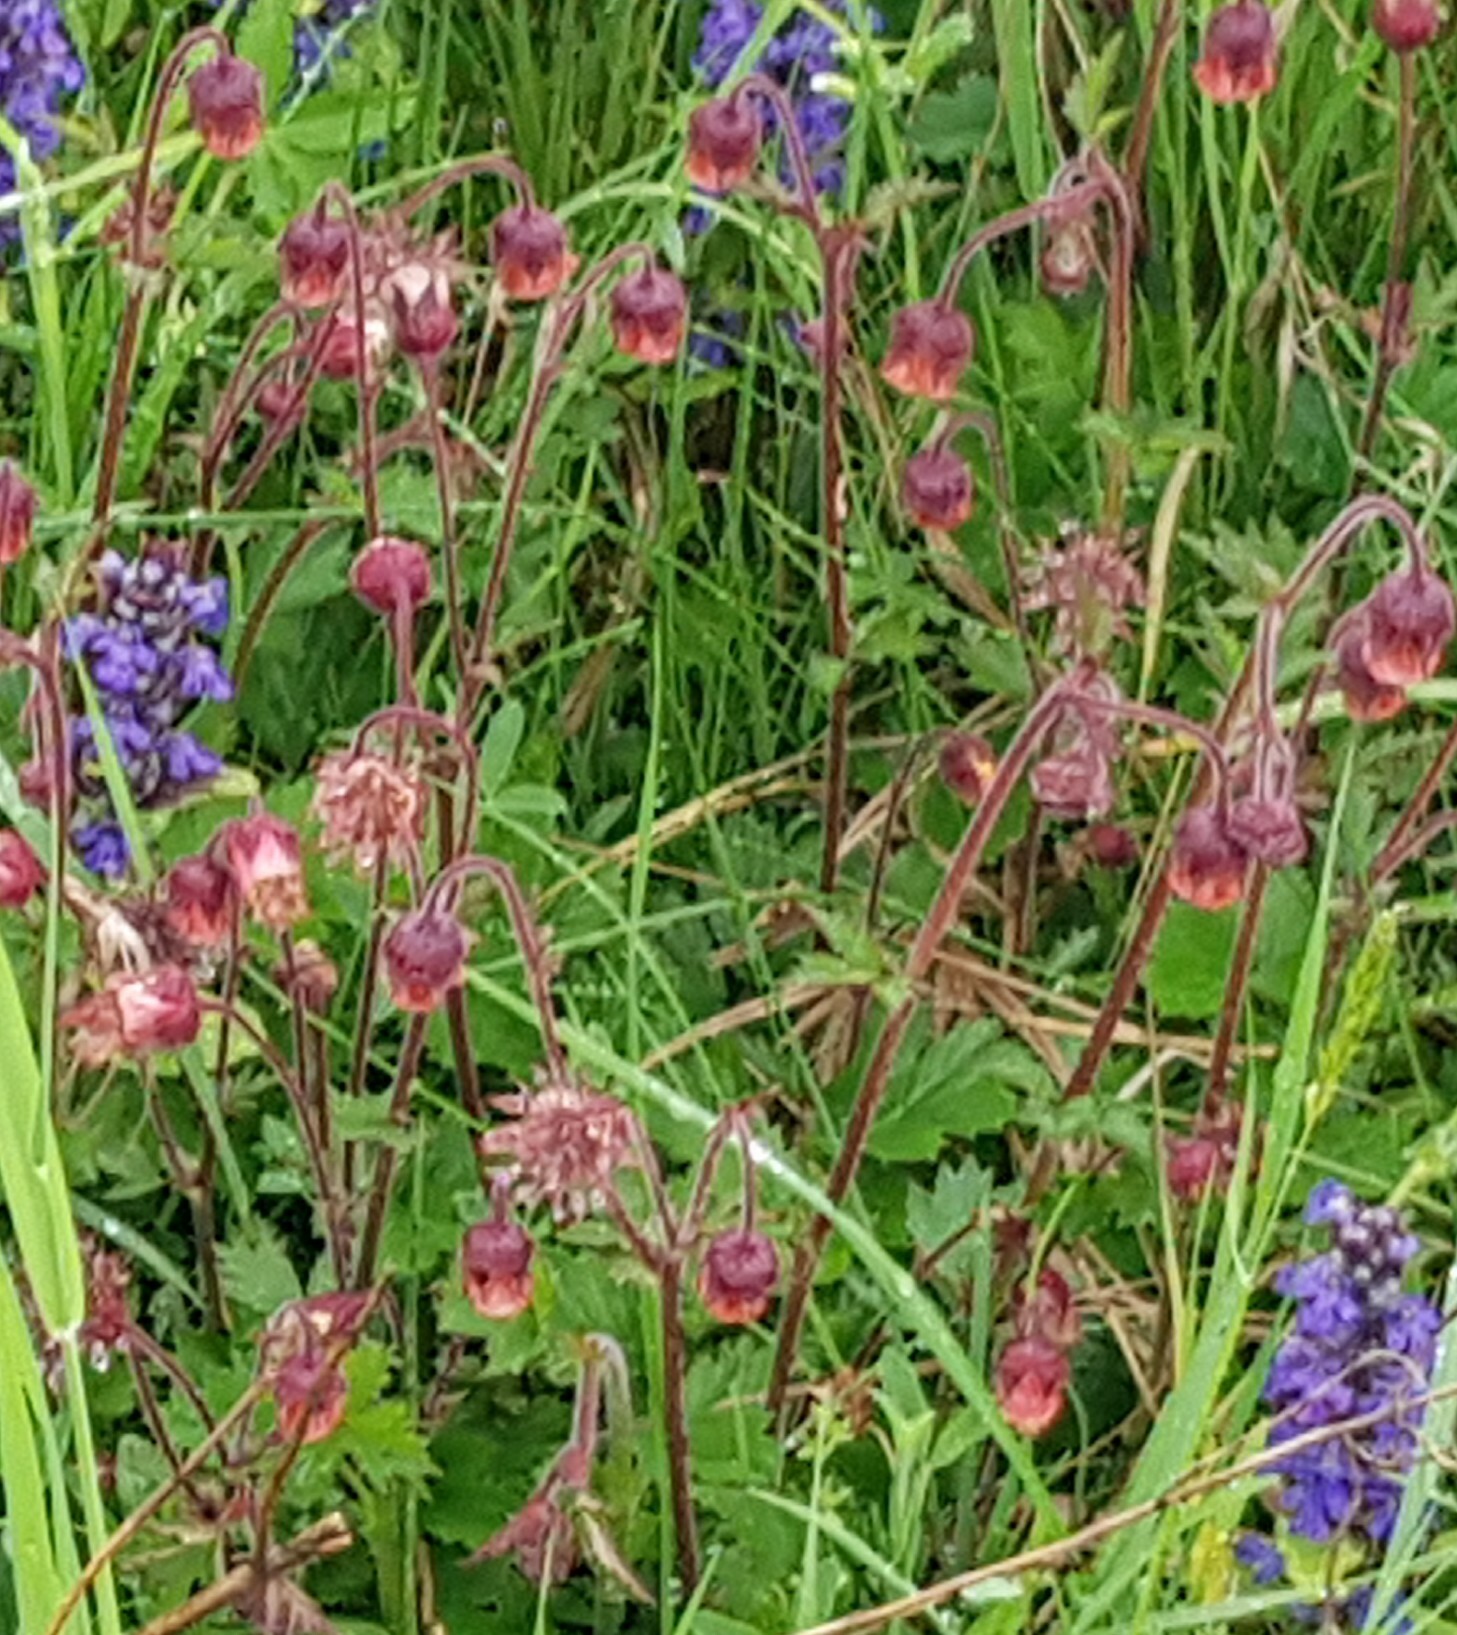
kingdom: Plantae
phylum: Tracheophyta
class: Magnoliopsida
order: Rosales
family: Rosaceae
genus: Geum
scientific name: Geum rivale
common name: Water avens
